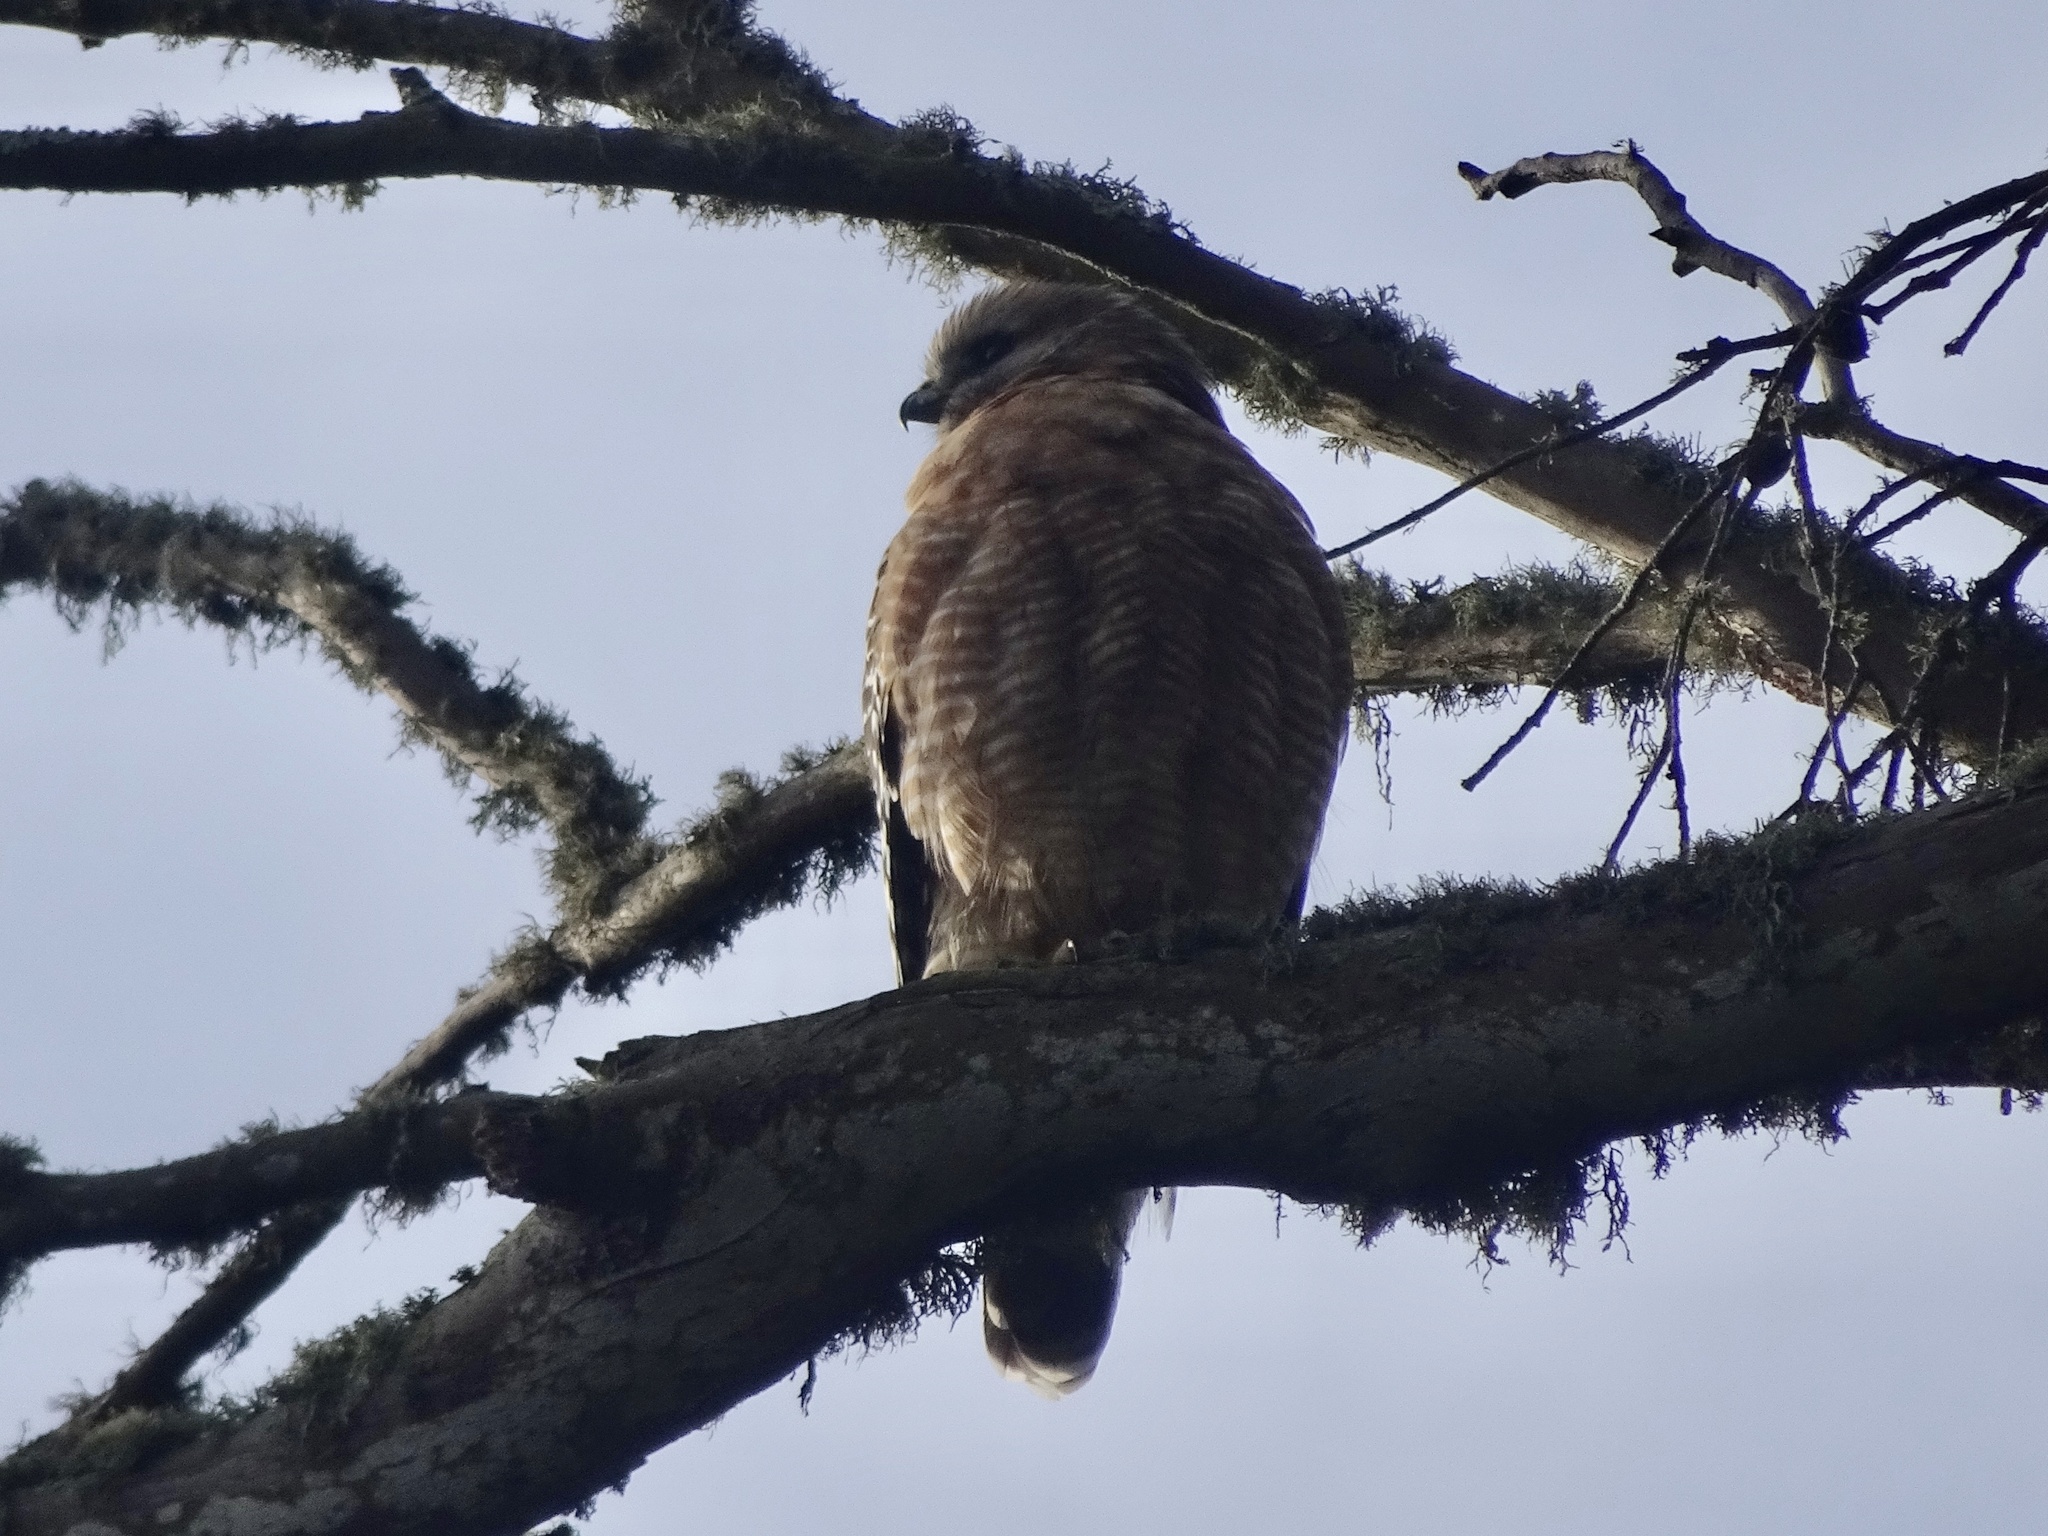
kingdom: Animalia
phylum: Chordata
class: Aves
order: Accipitriformes
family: Accipitridae
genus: Buteo
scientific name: Buteo lineatus
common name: Red-shouldered hawk
